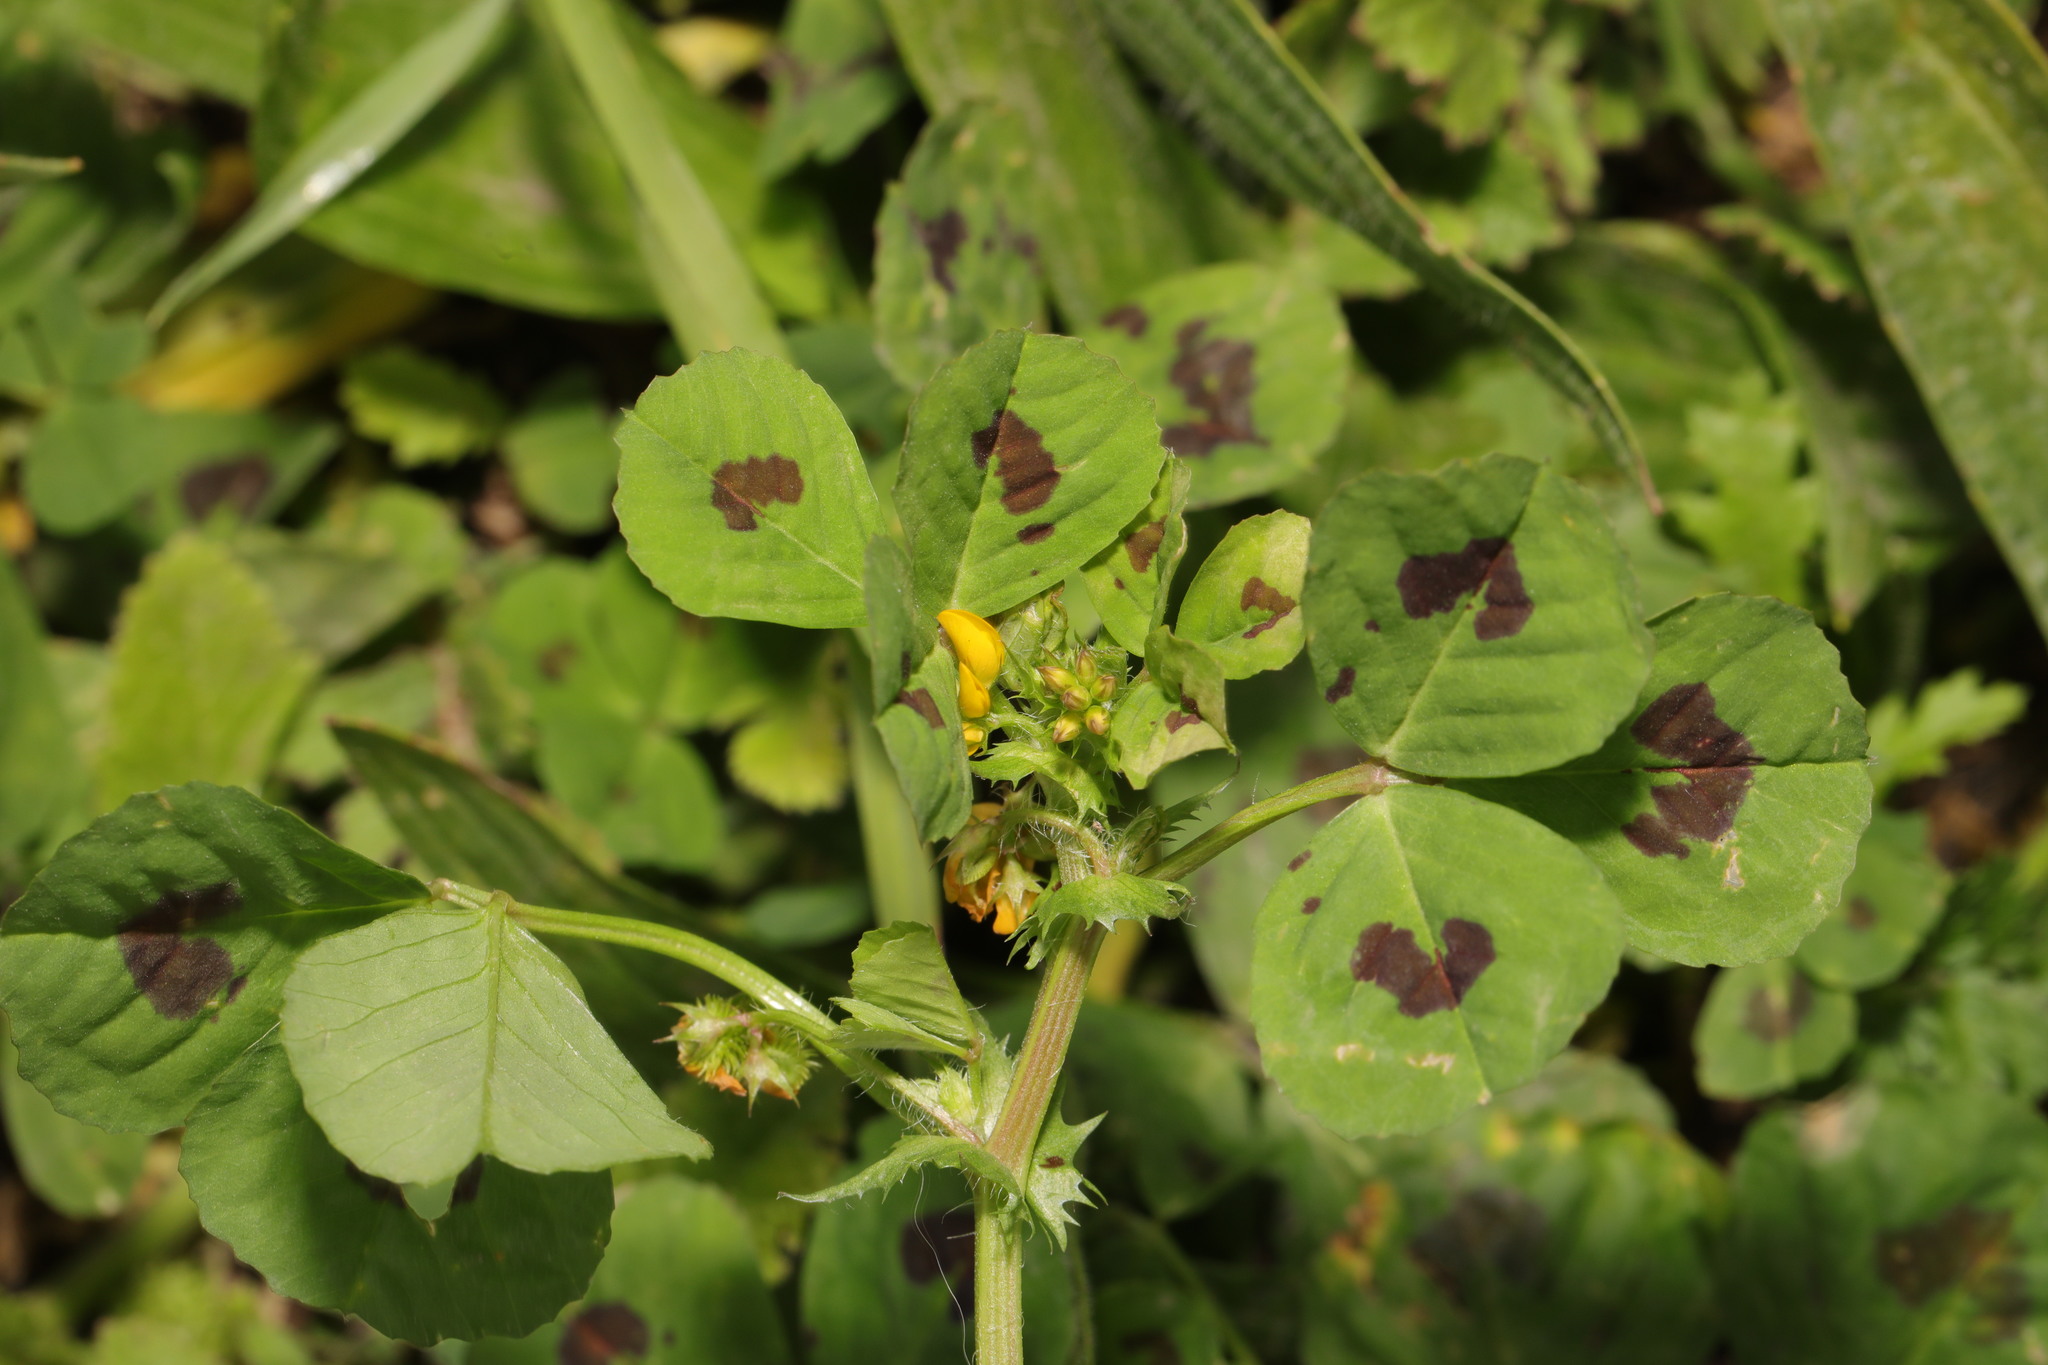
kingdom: Plantae
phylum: Tracheophyta
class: Magnoliopsida
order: Fabales
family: Fabaceae
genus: Medicago
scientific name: Medicago arabica
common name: Spotted medick
